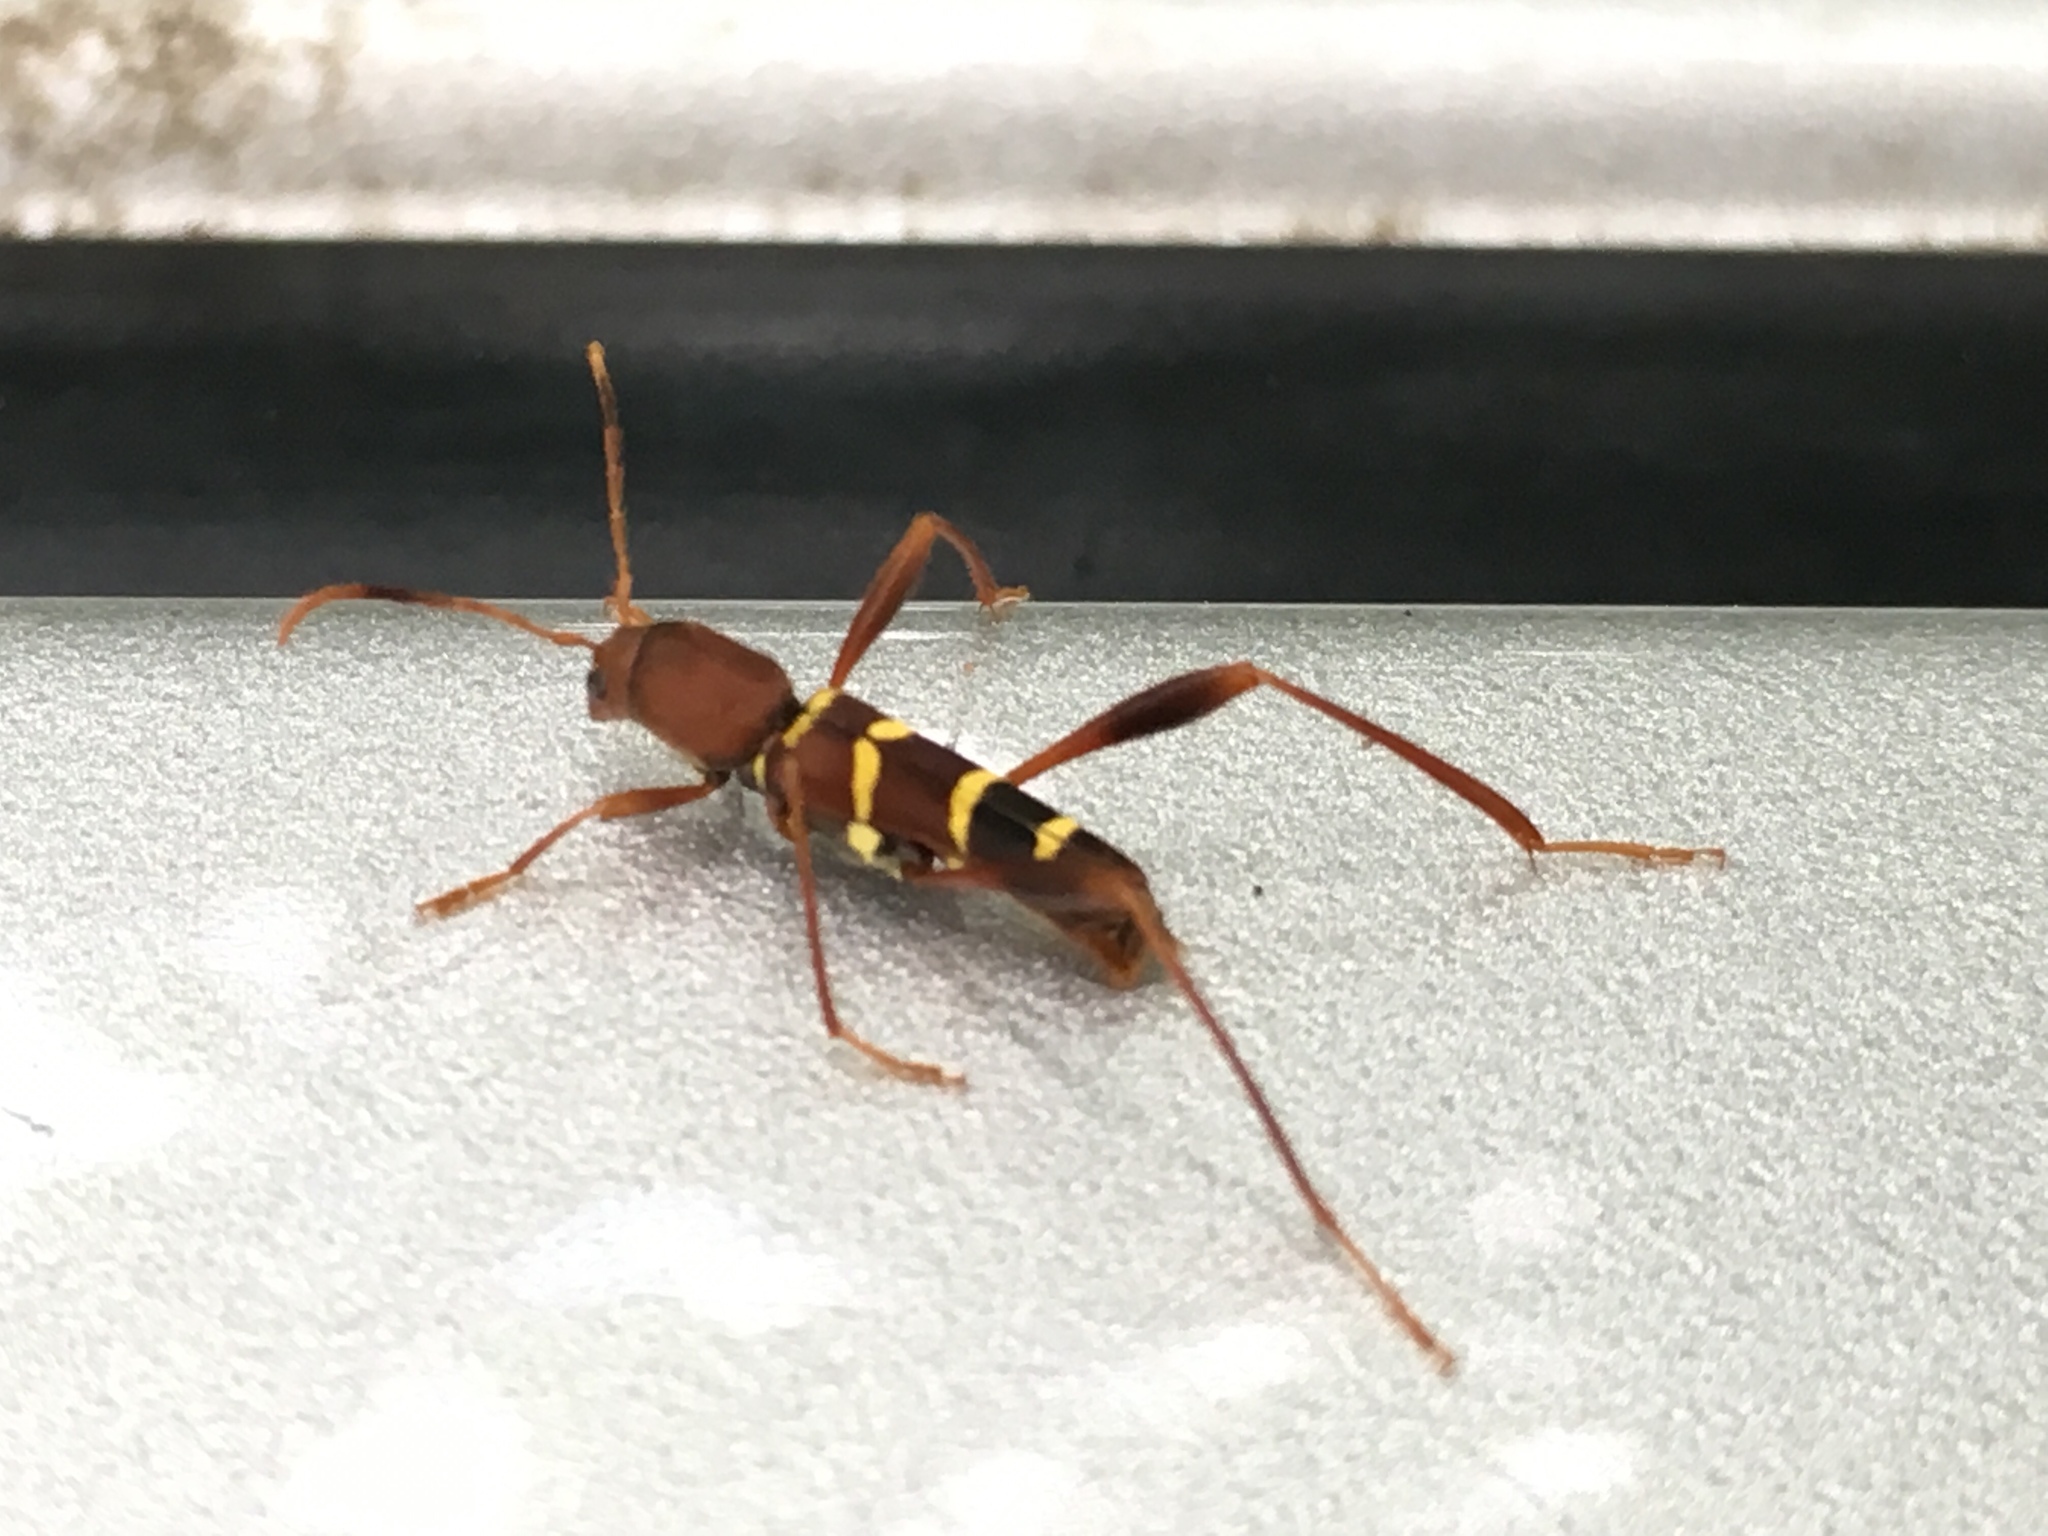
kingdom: Animalia
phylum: Arthropoda
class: Insecta
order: Coleoptera
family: Cerambycidae
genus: Neoclytus
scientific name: Neoclytus acuminatus
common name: Read-headed ash borer
